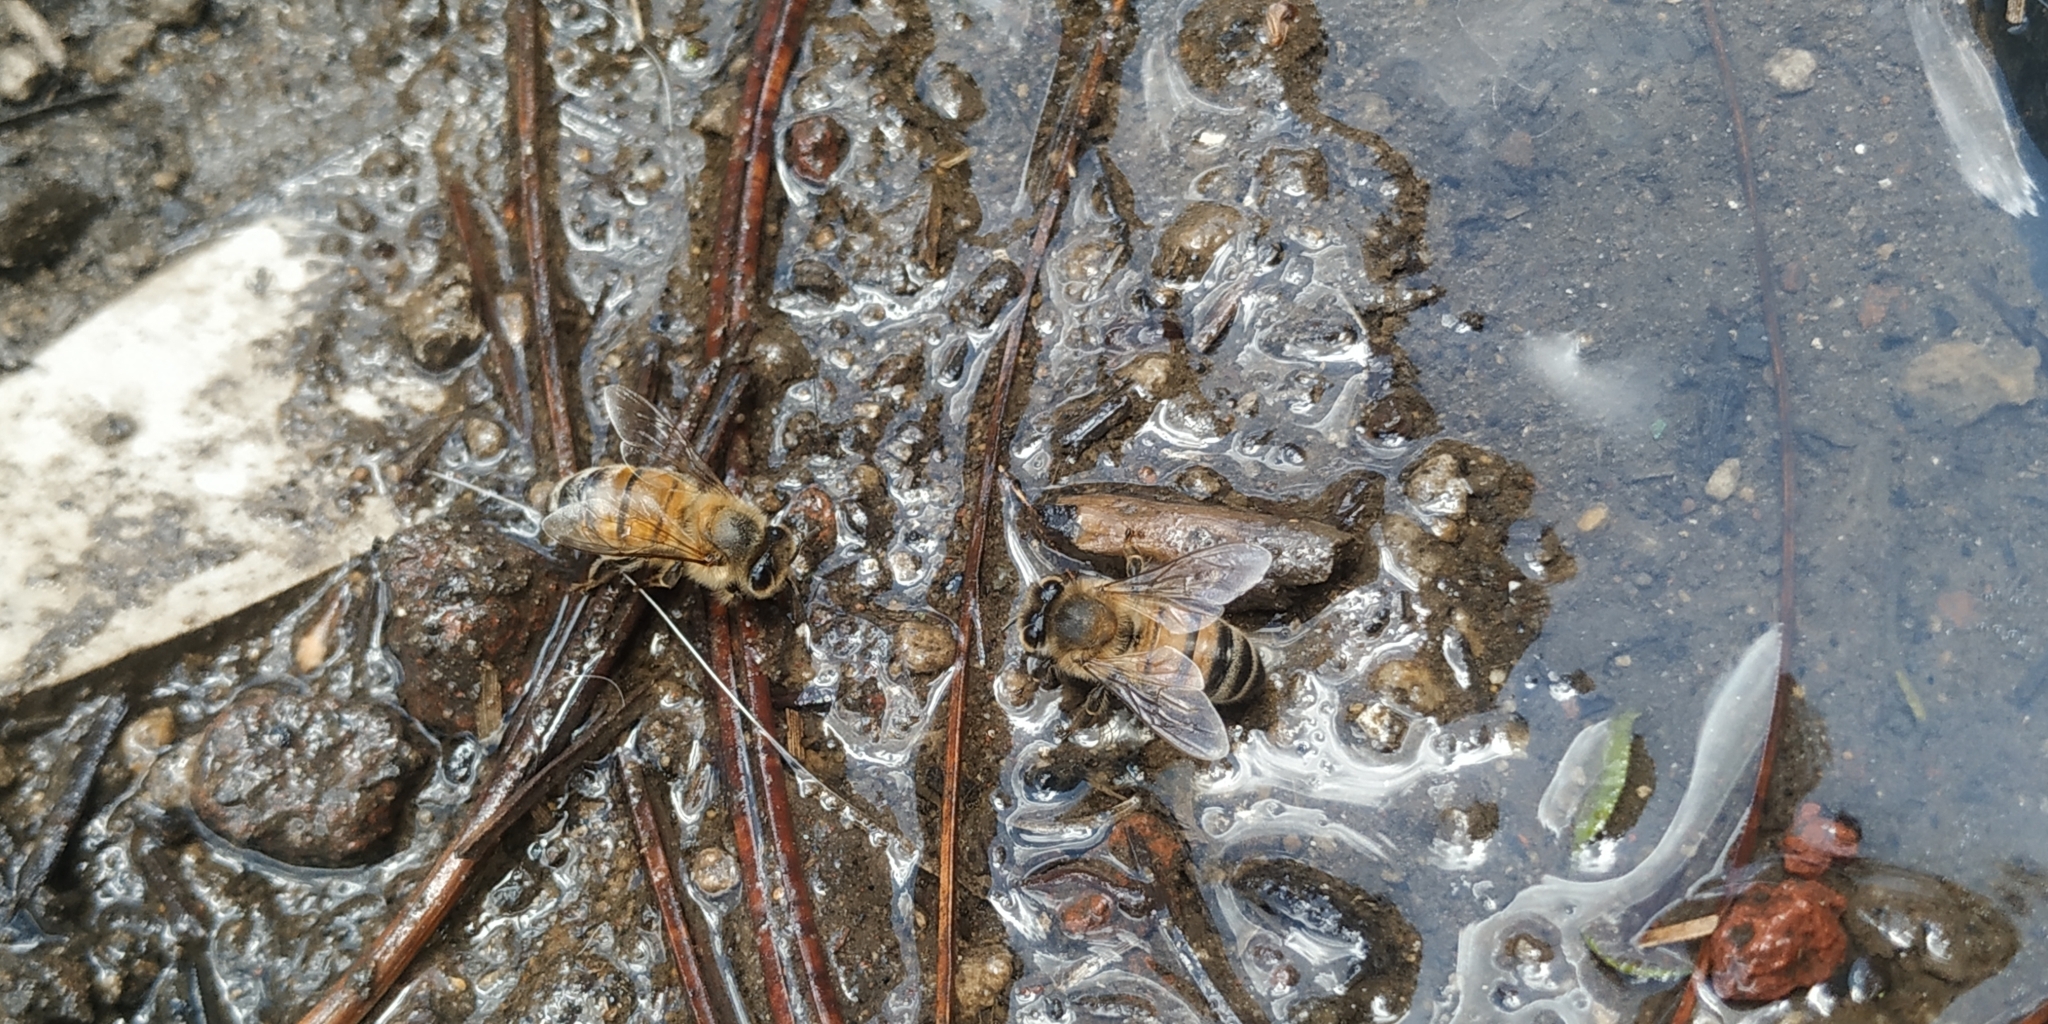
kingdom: Animalia
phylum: Arthropoda
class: Insecta
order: Hymenoptera
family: Apidae
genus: Apis
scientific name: Apis mellifera
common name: Honey bee
